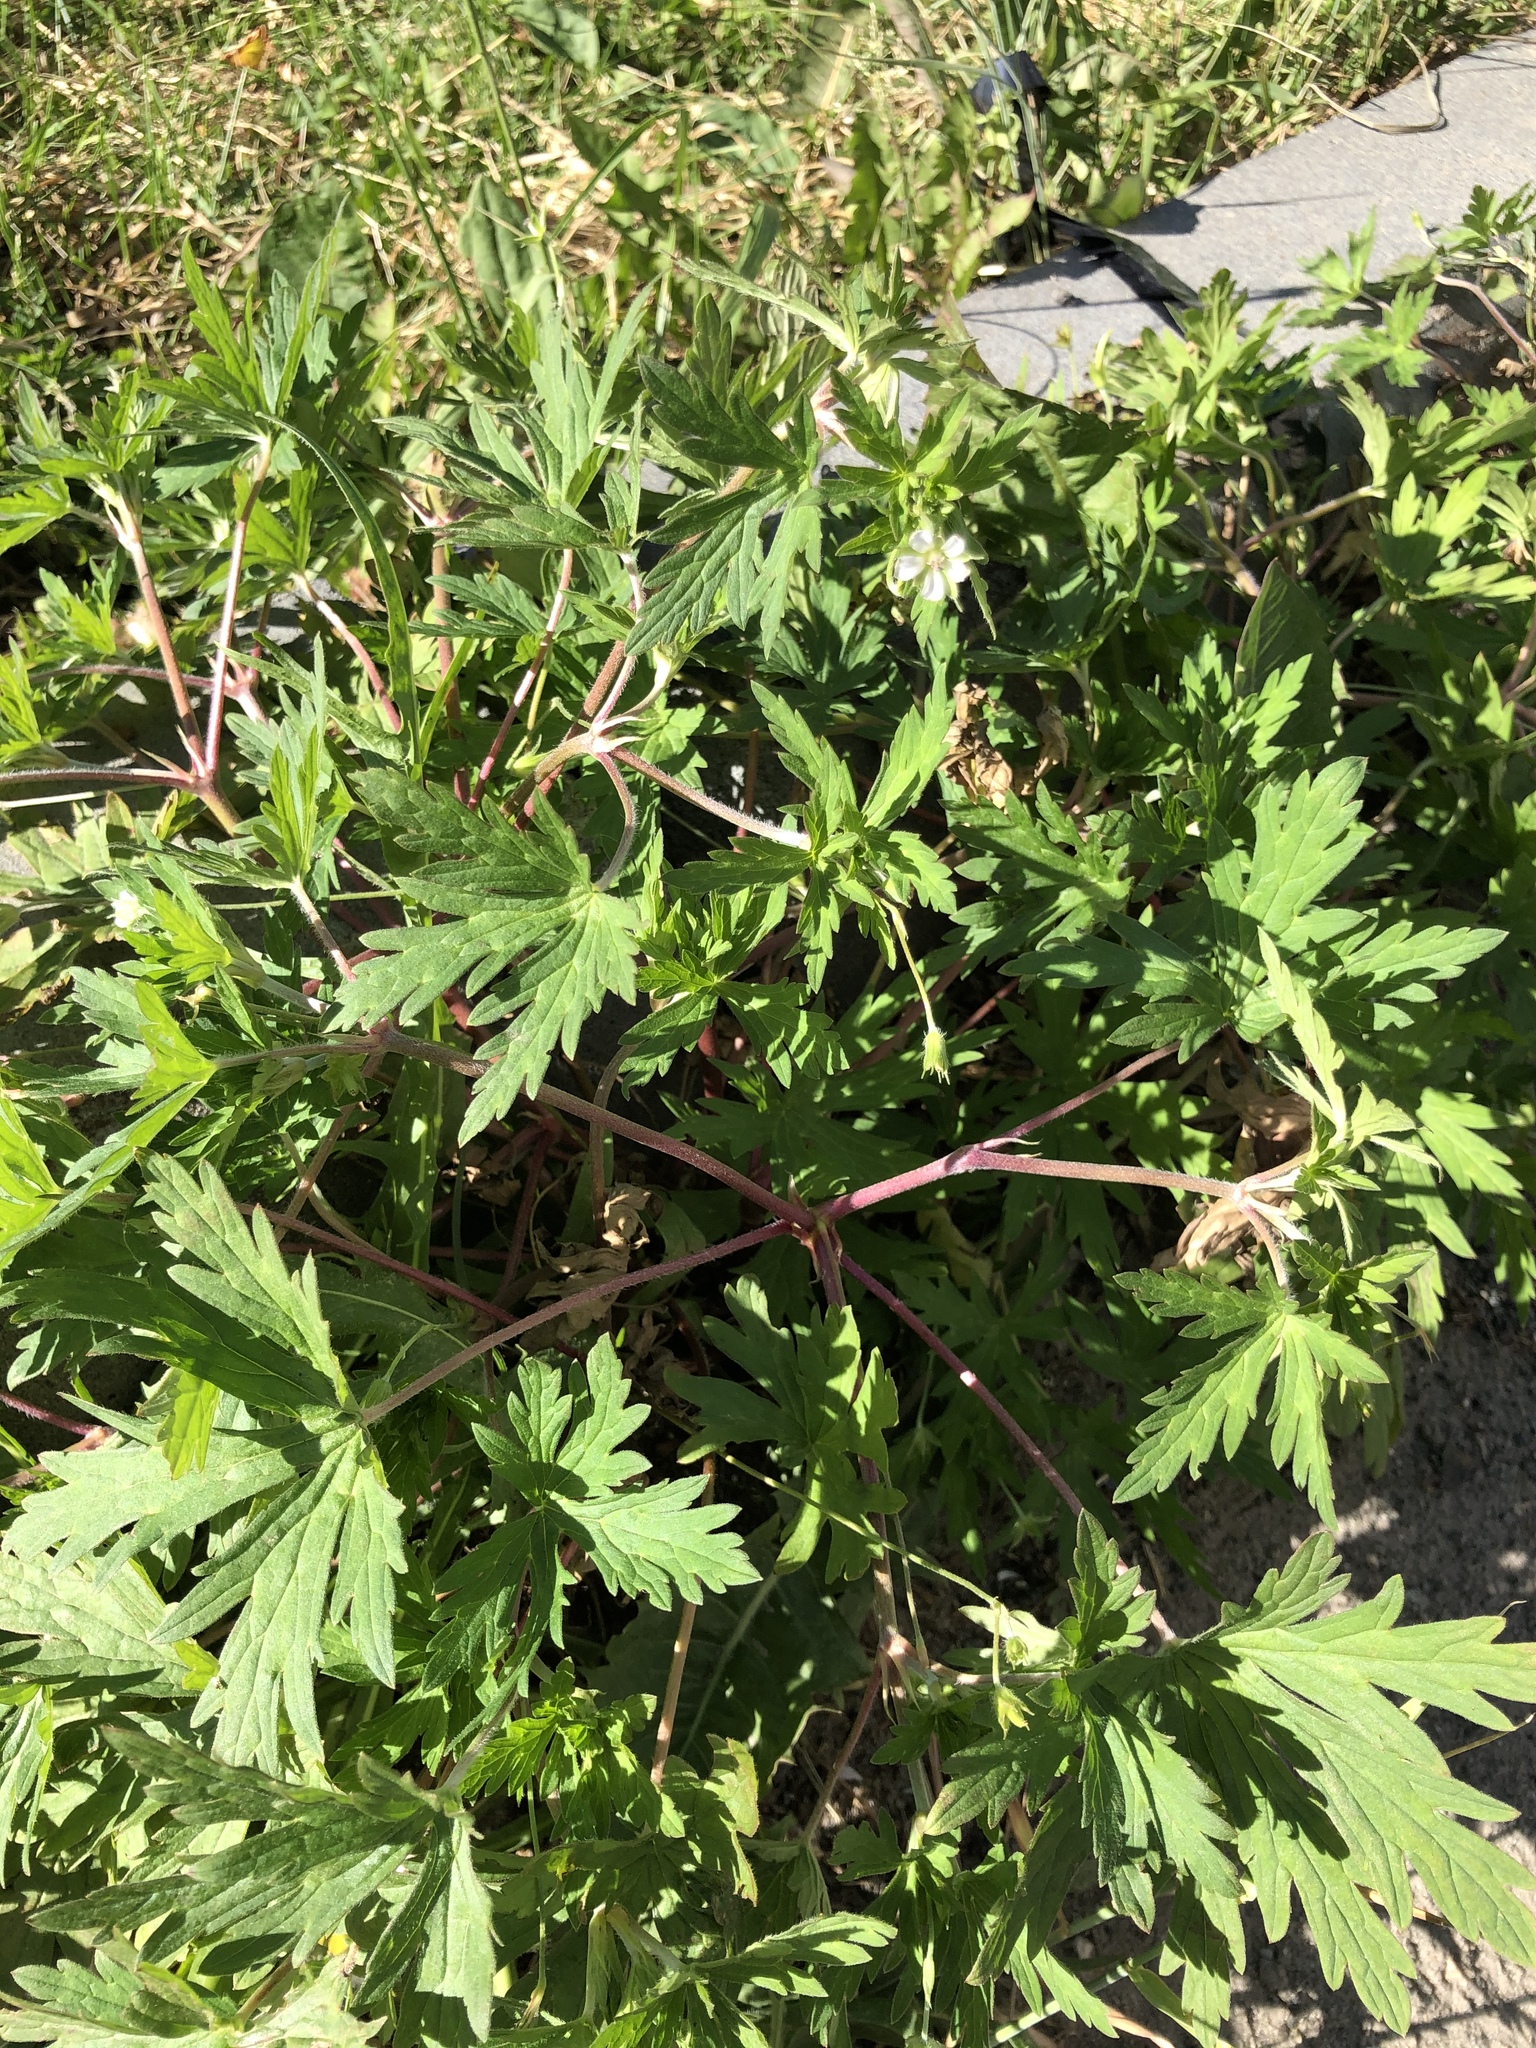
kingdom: Plantae
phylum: Tracheophyta
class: Magnoliopsida
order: Geraniales
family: Geraniaceae
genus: Geranium
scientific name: Geranium sibiricum
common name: Siberian crane's-bill
